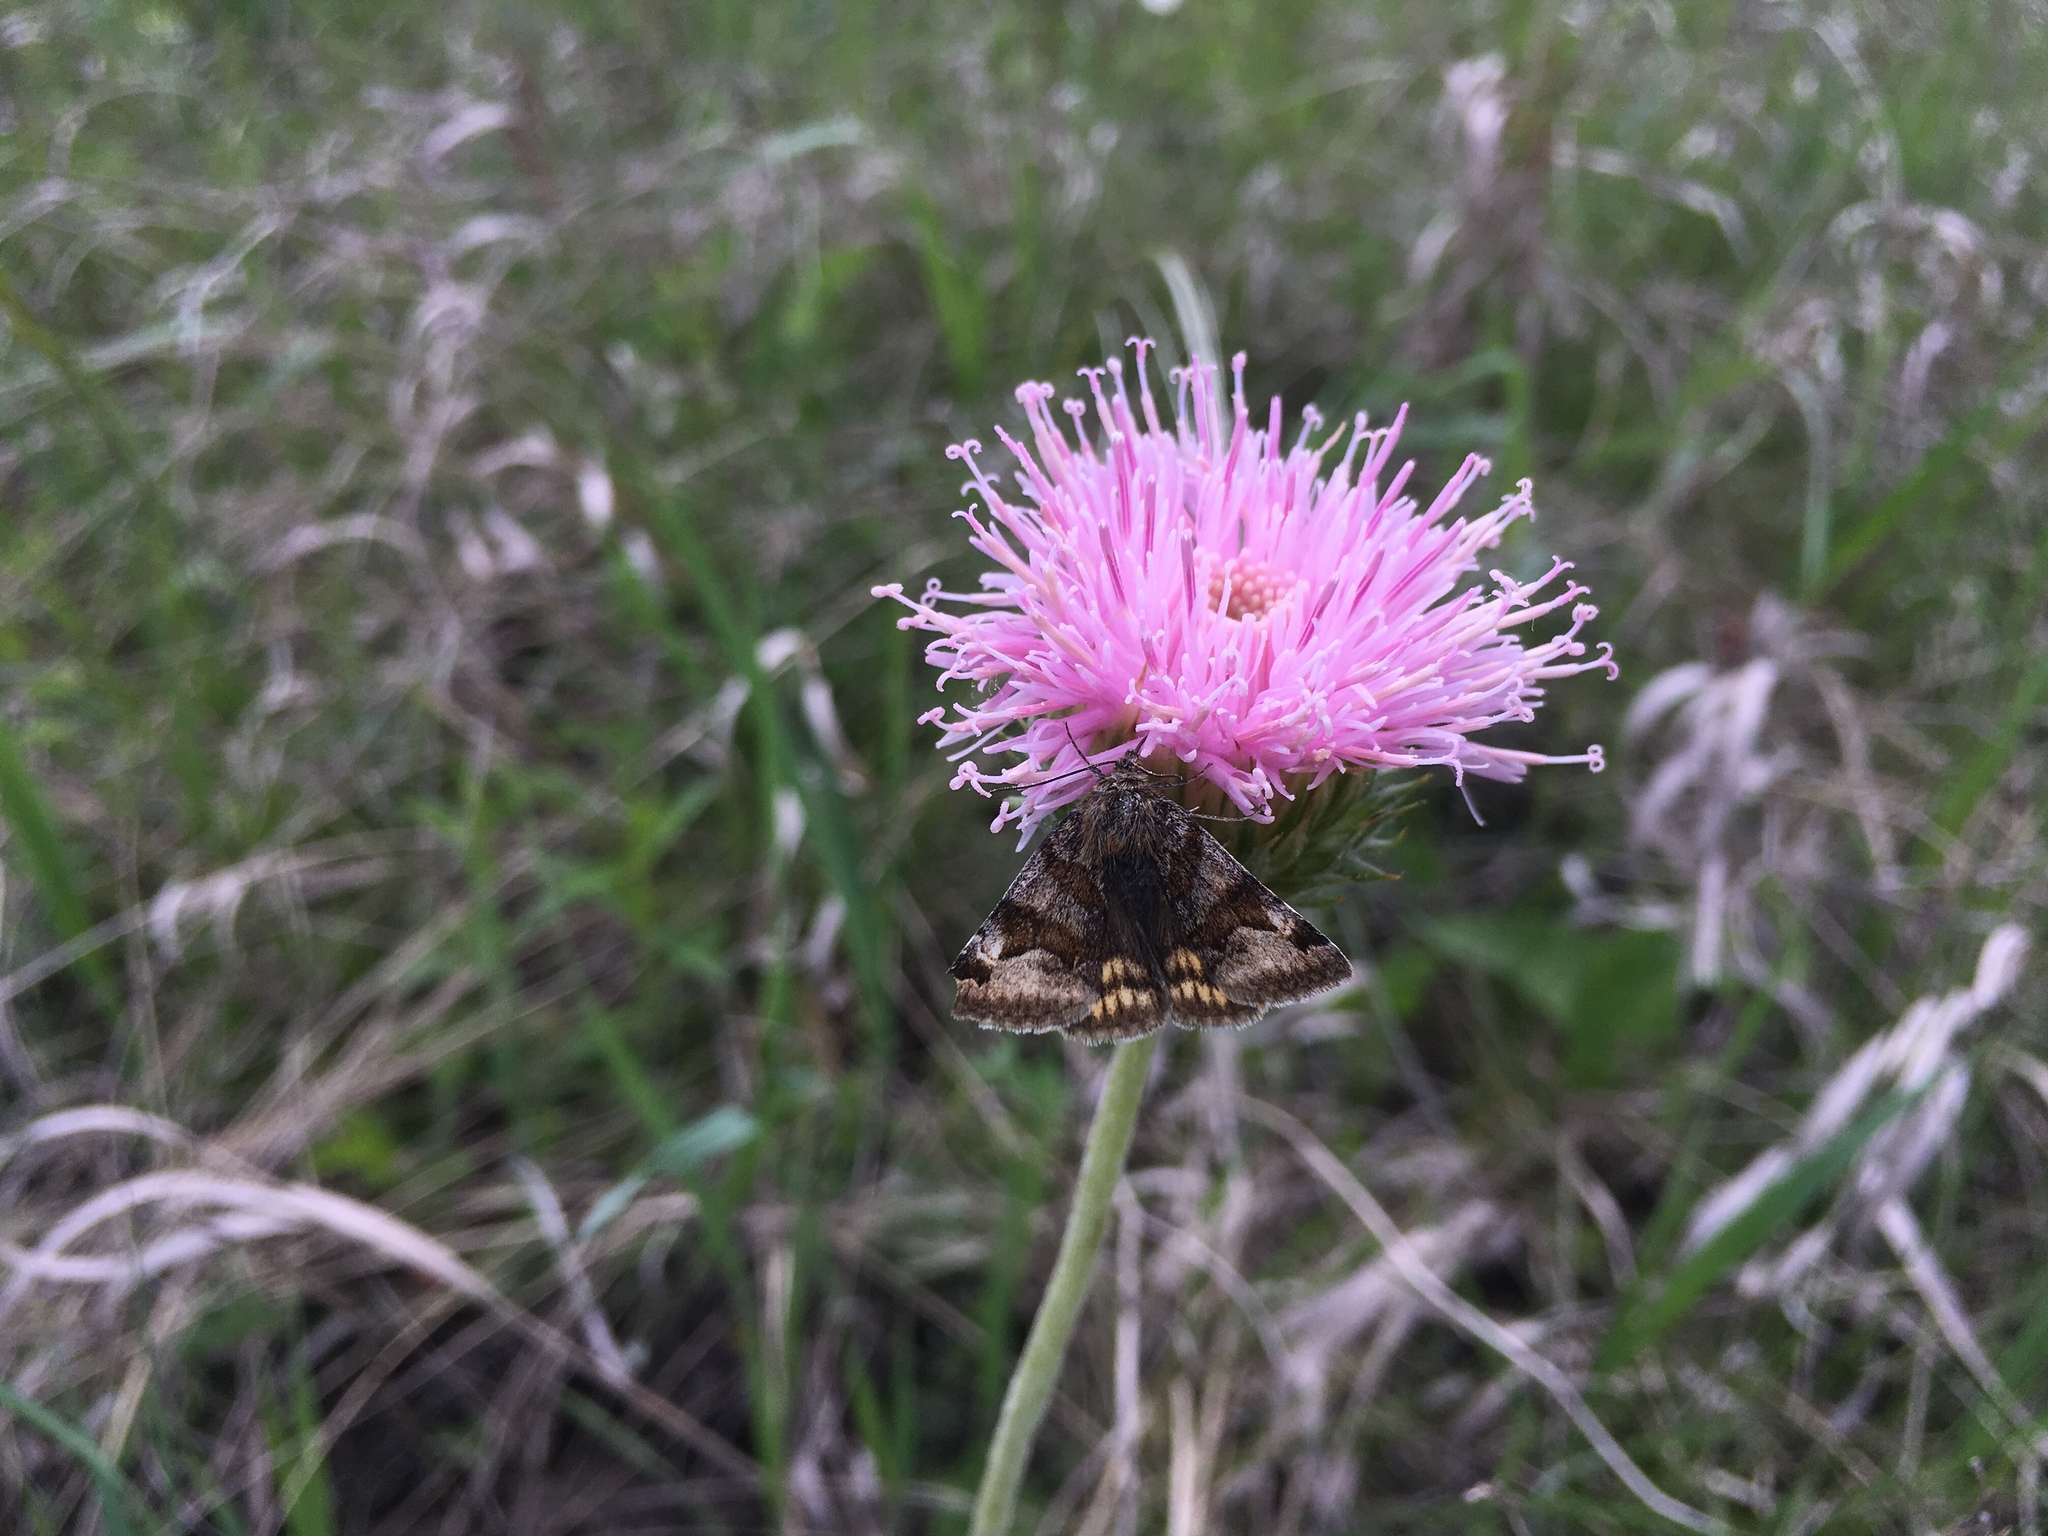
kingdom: Animalia
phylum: Arthropoda
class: Insecta
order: Lepidoptera
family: Erebidae
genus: Euclidia
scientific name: Euclidia glyphica
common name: Burnet companion
